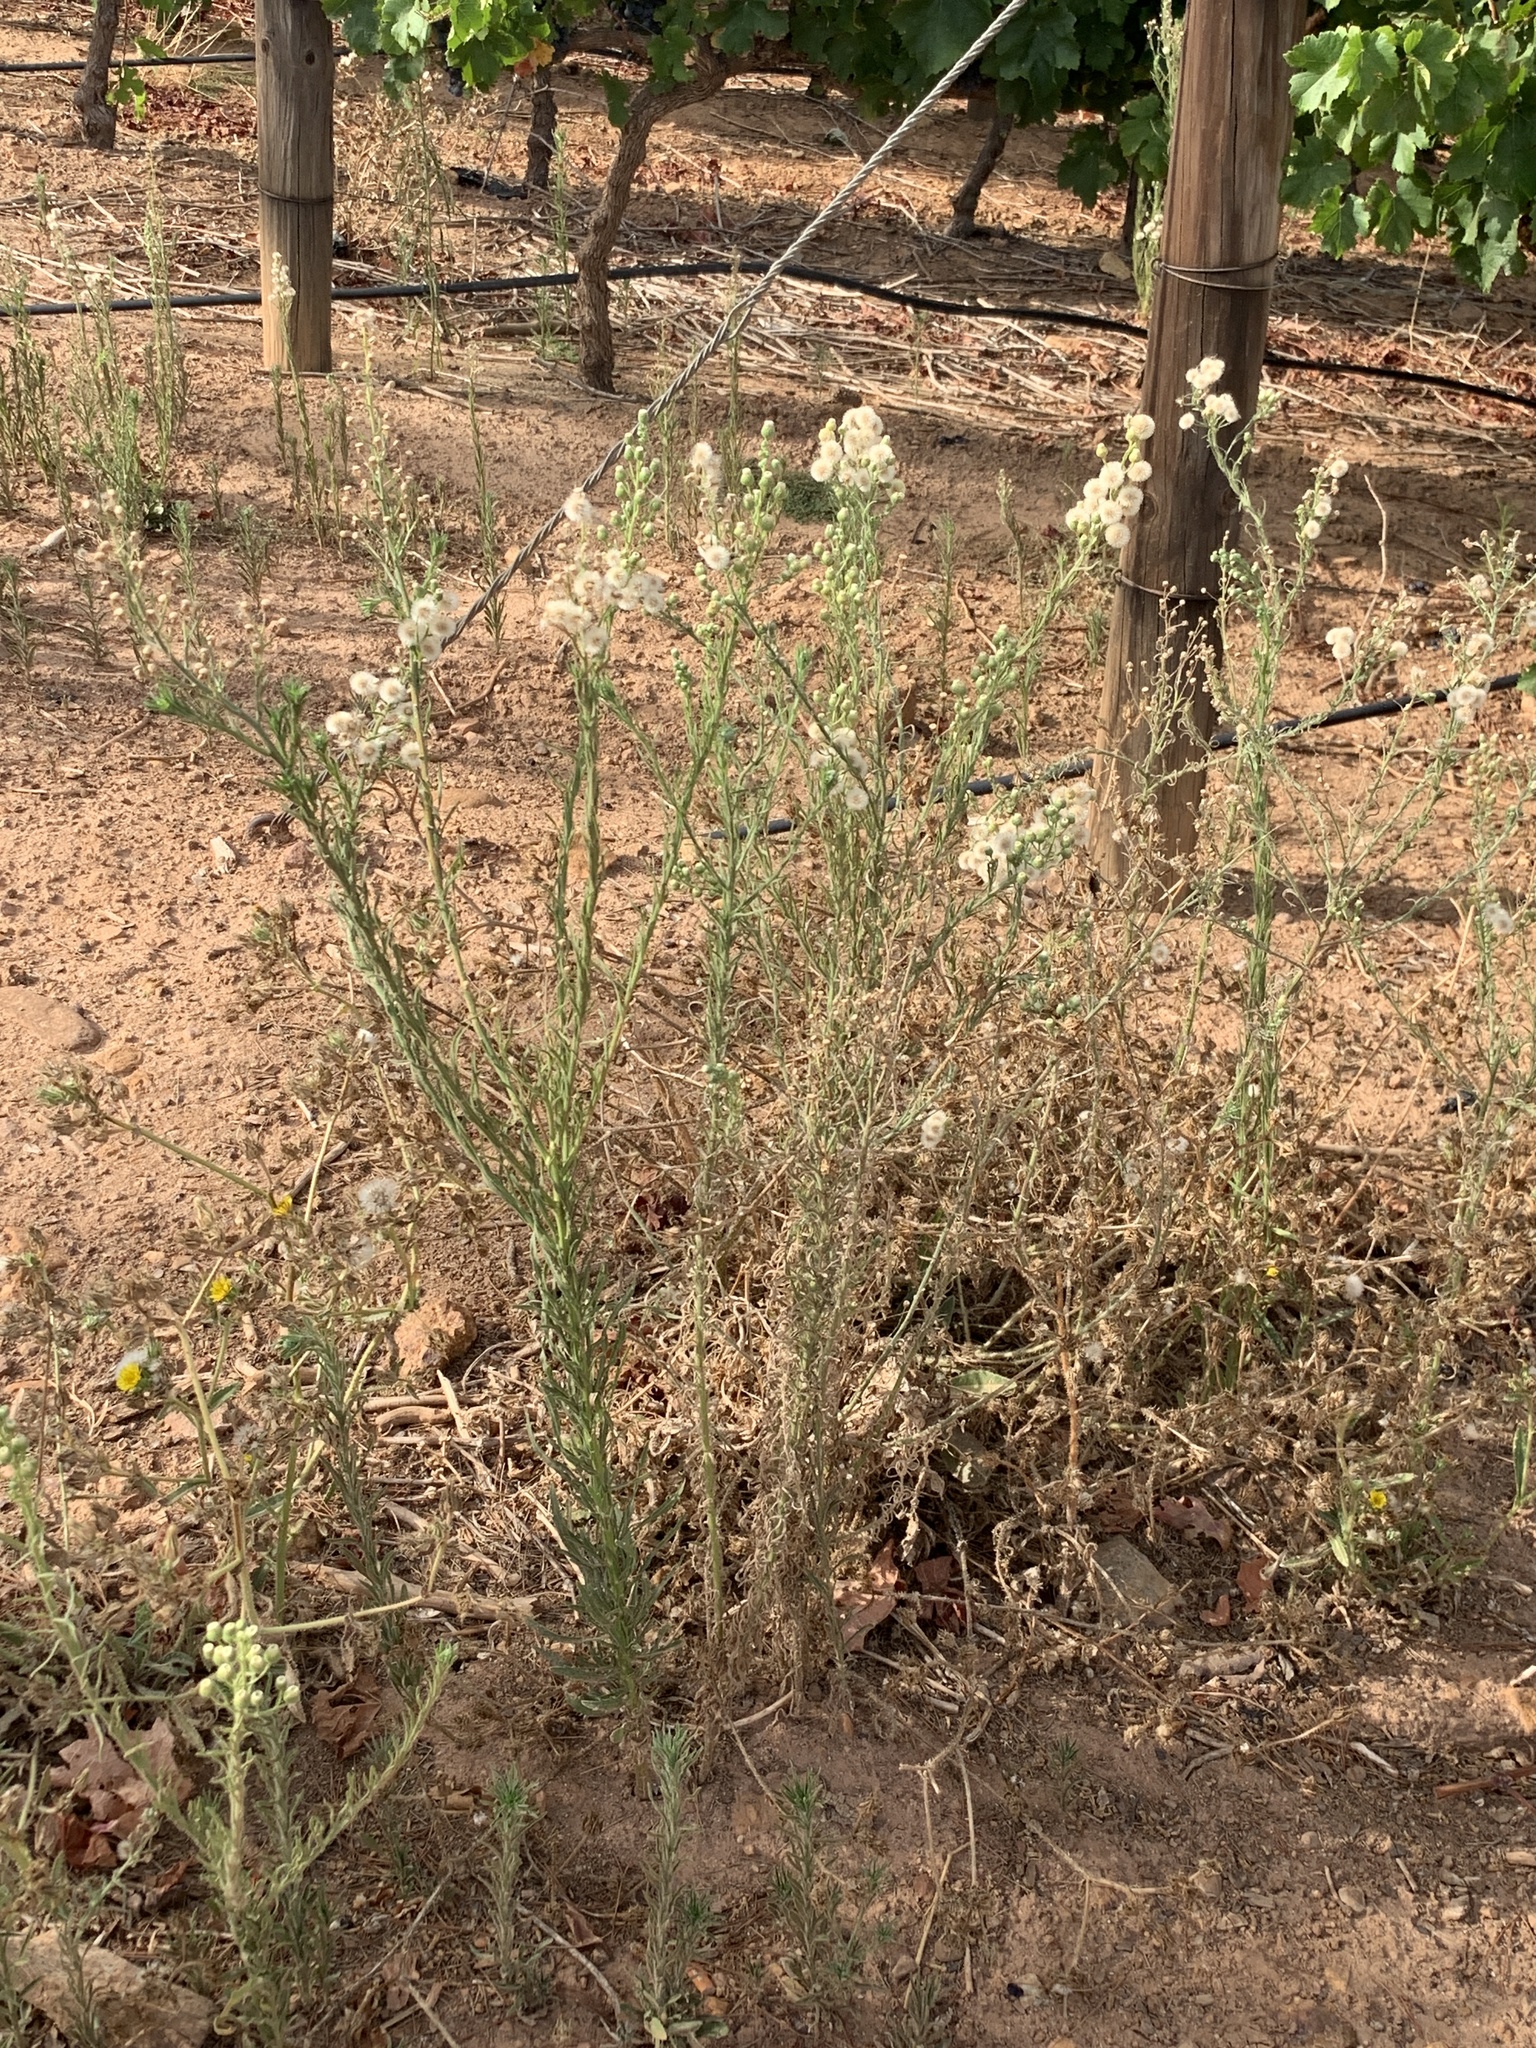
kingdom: Plantae
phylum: Tracheophyta
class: Magnoliopsida
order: Asterales
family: Asteraceae
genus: Erigeron
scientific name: Erigeron bonariensis
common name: Argentine fleabane
